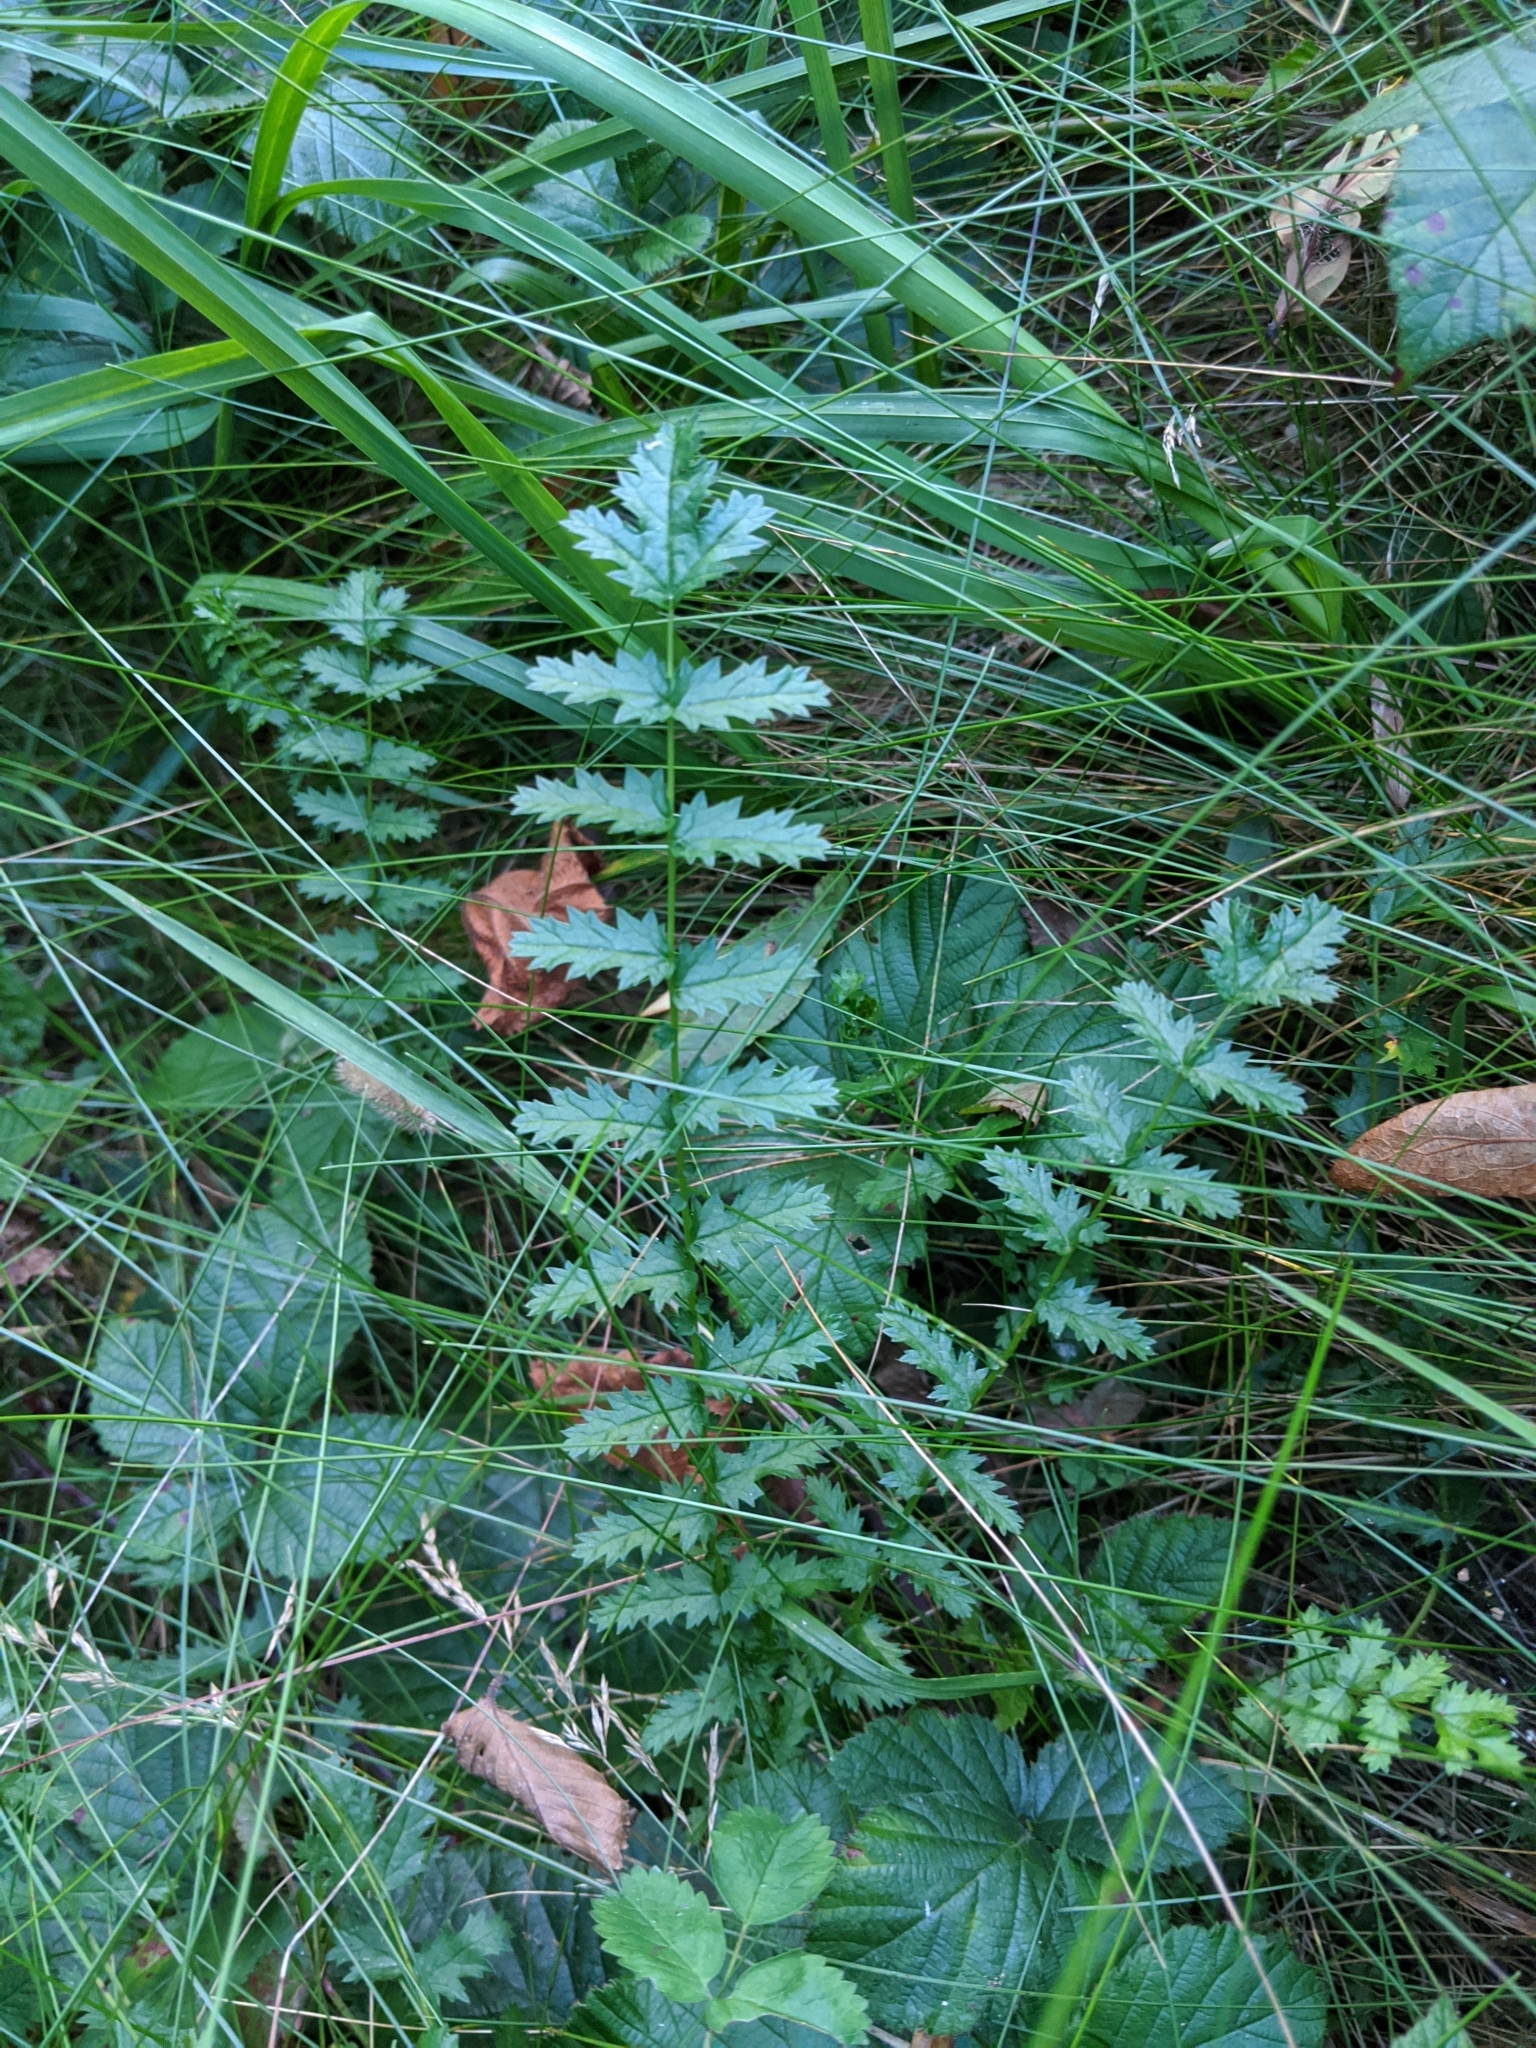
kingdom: Plantae
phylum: Tracheophyta
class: Magnoliopsida
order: Rosales
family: Rosaceae
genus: Filipendula
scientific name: Filipendula vulgaris
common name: Dropwort
